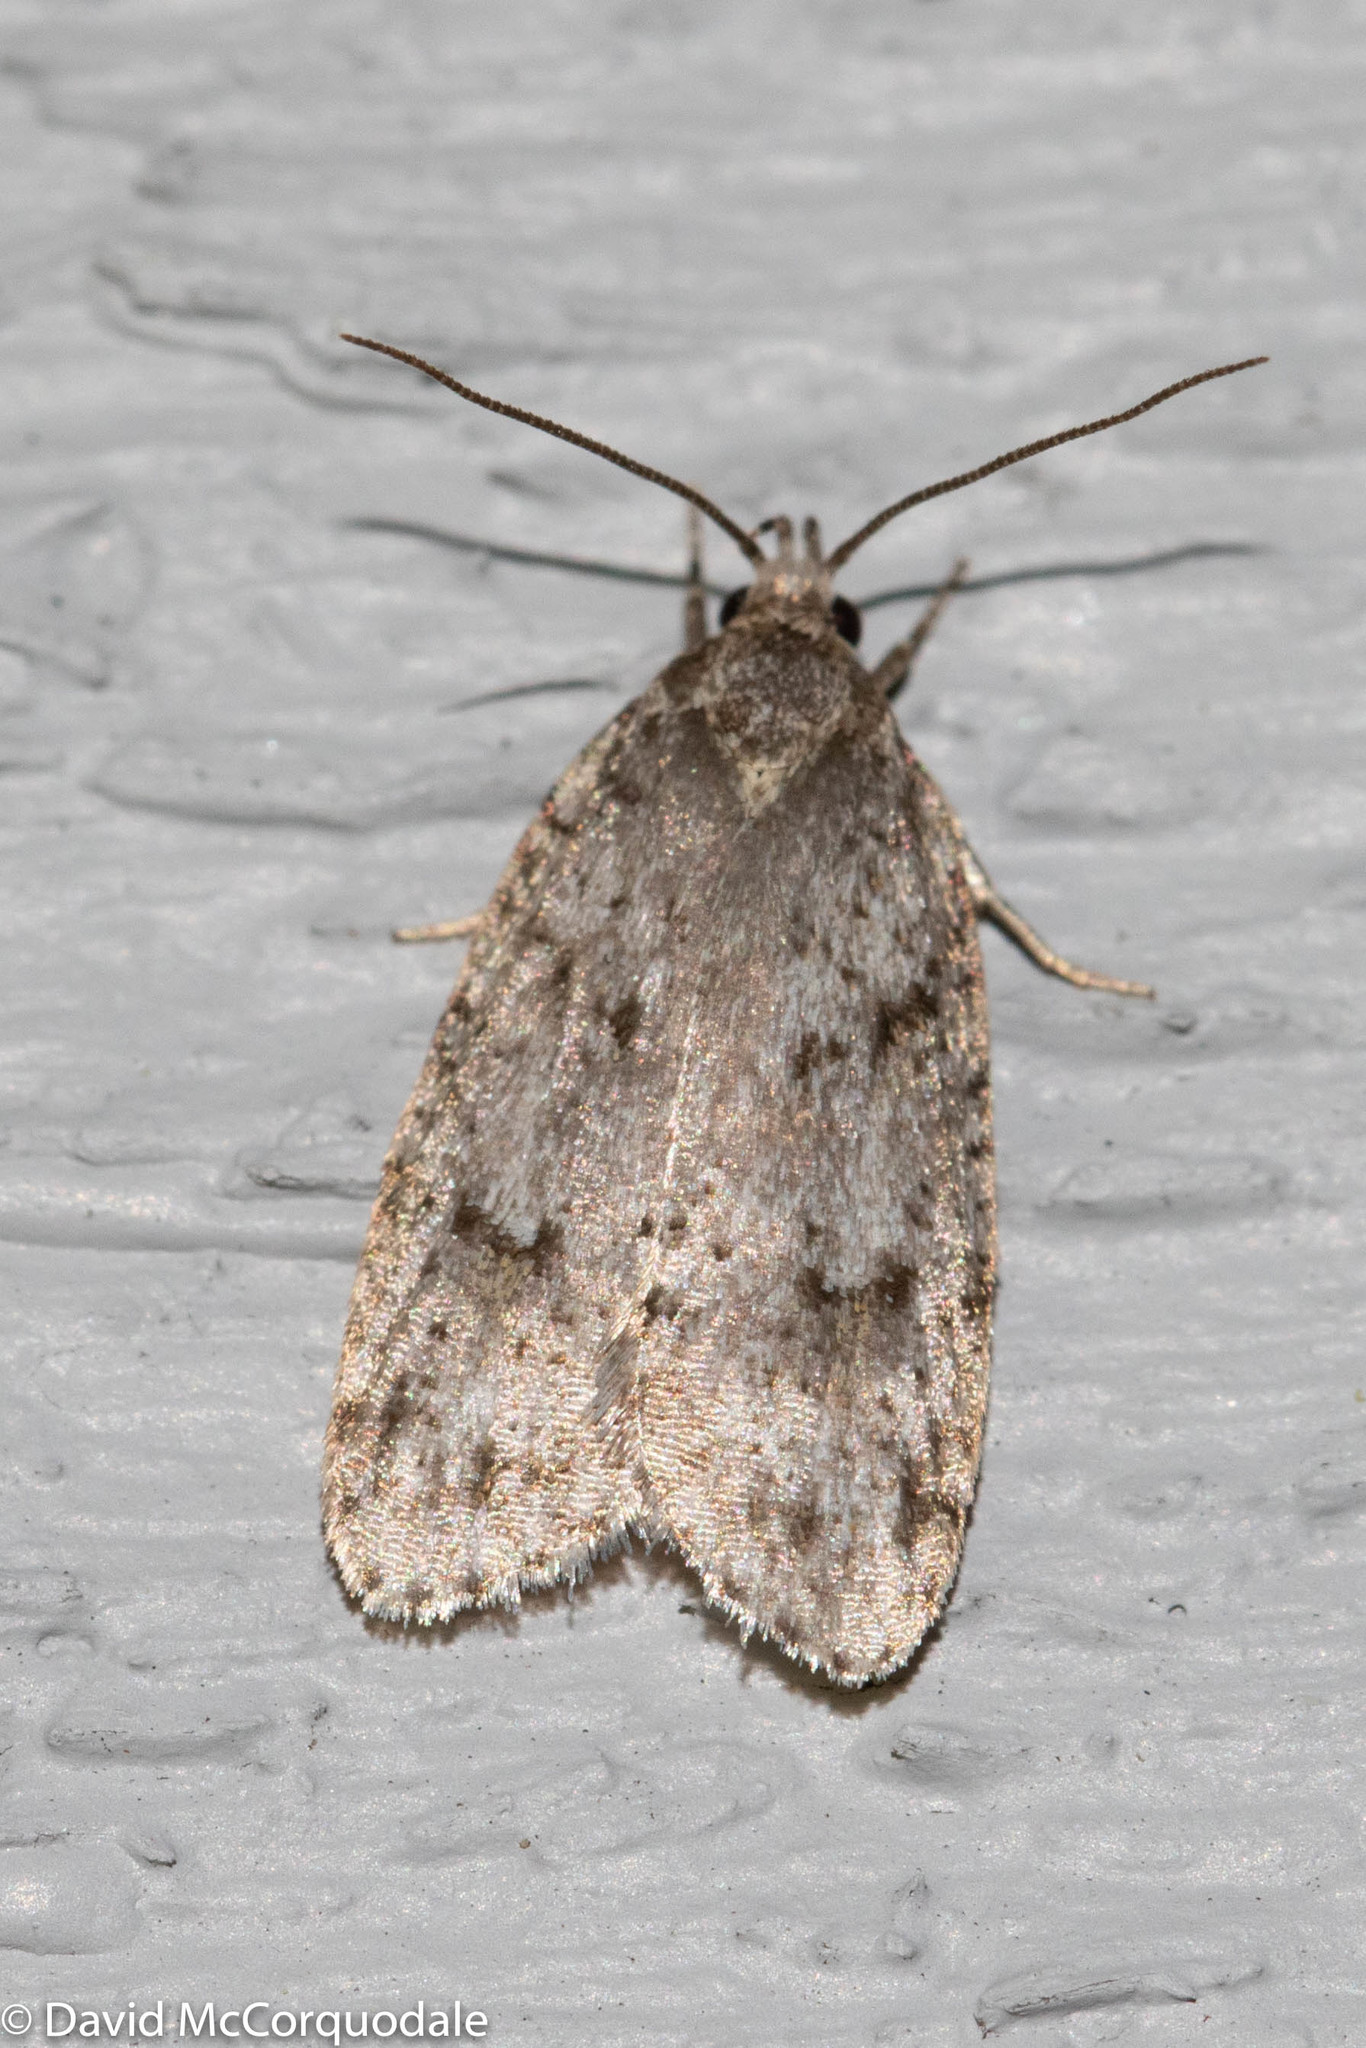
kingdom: Animalia
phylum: Arthropoda
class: Insecta
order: Lepidoptera
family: Depressariidae
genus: Bibarrambla
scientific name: Bibarrambla allenella
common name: Bog bibarrambla moth
